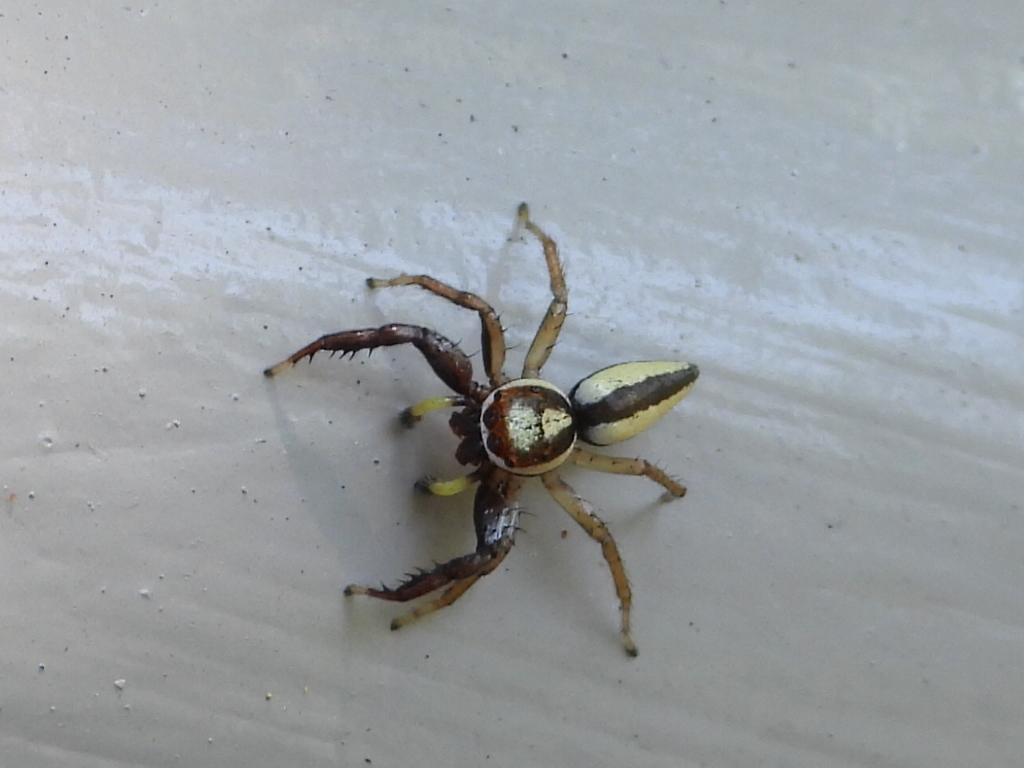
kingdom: Animalia
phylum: Arthropoda
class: Arachnida
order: Araneae
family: Salticidae
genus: Epocilla
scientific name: Epocilla blairei
